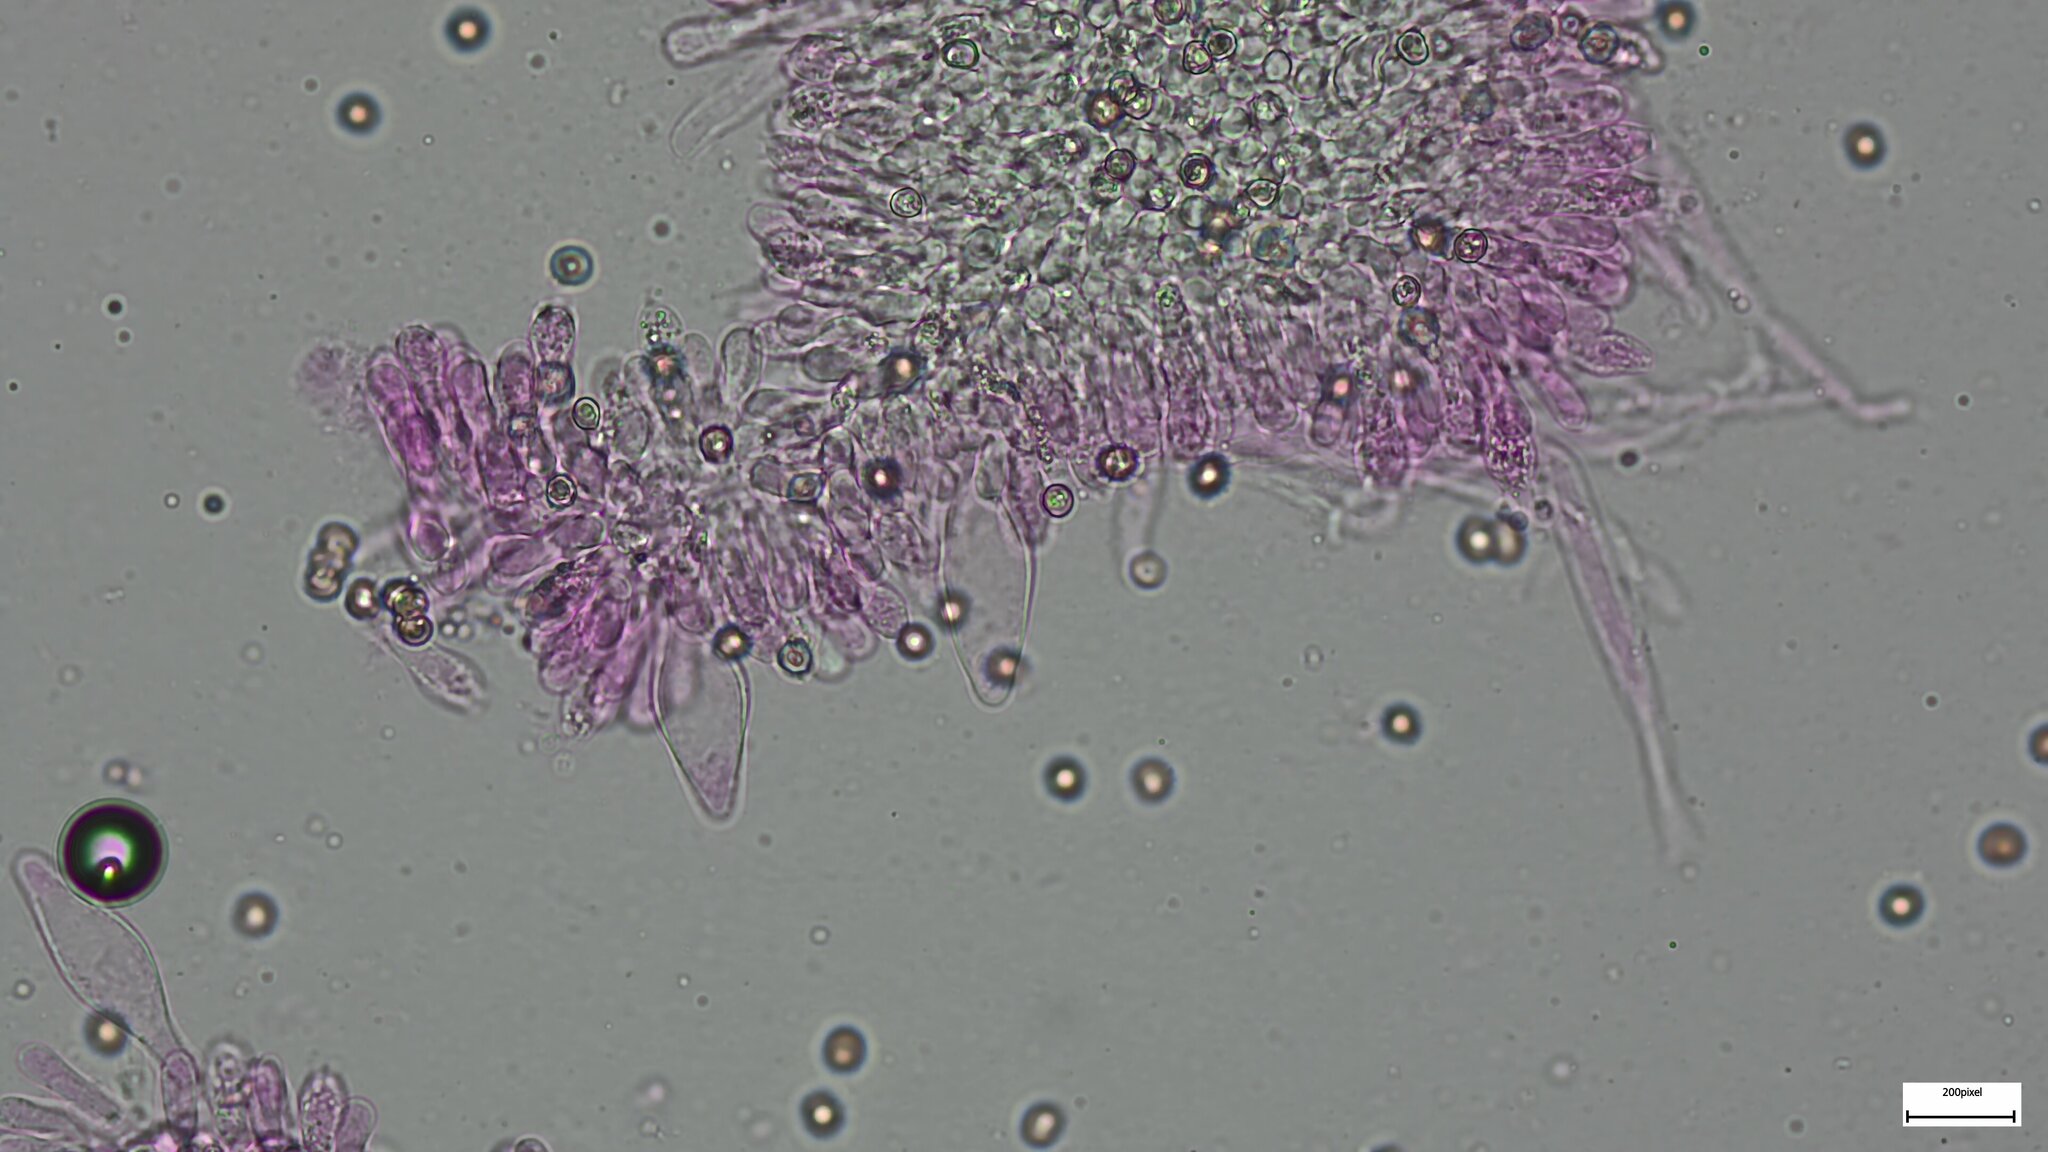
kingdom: Fungi
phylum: Basidiomycota
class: Agaricomycetes
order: Agaricales
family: Pluteaceae
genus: Pluteus
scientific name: Pluteus aurantiorugosus
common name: Flame shield
